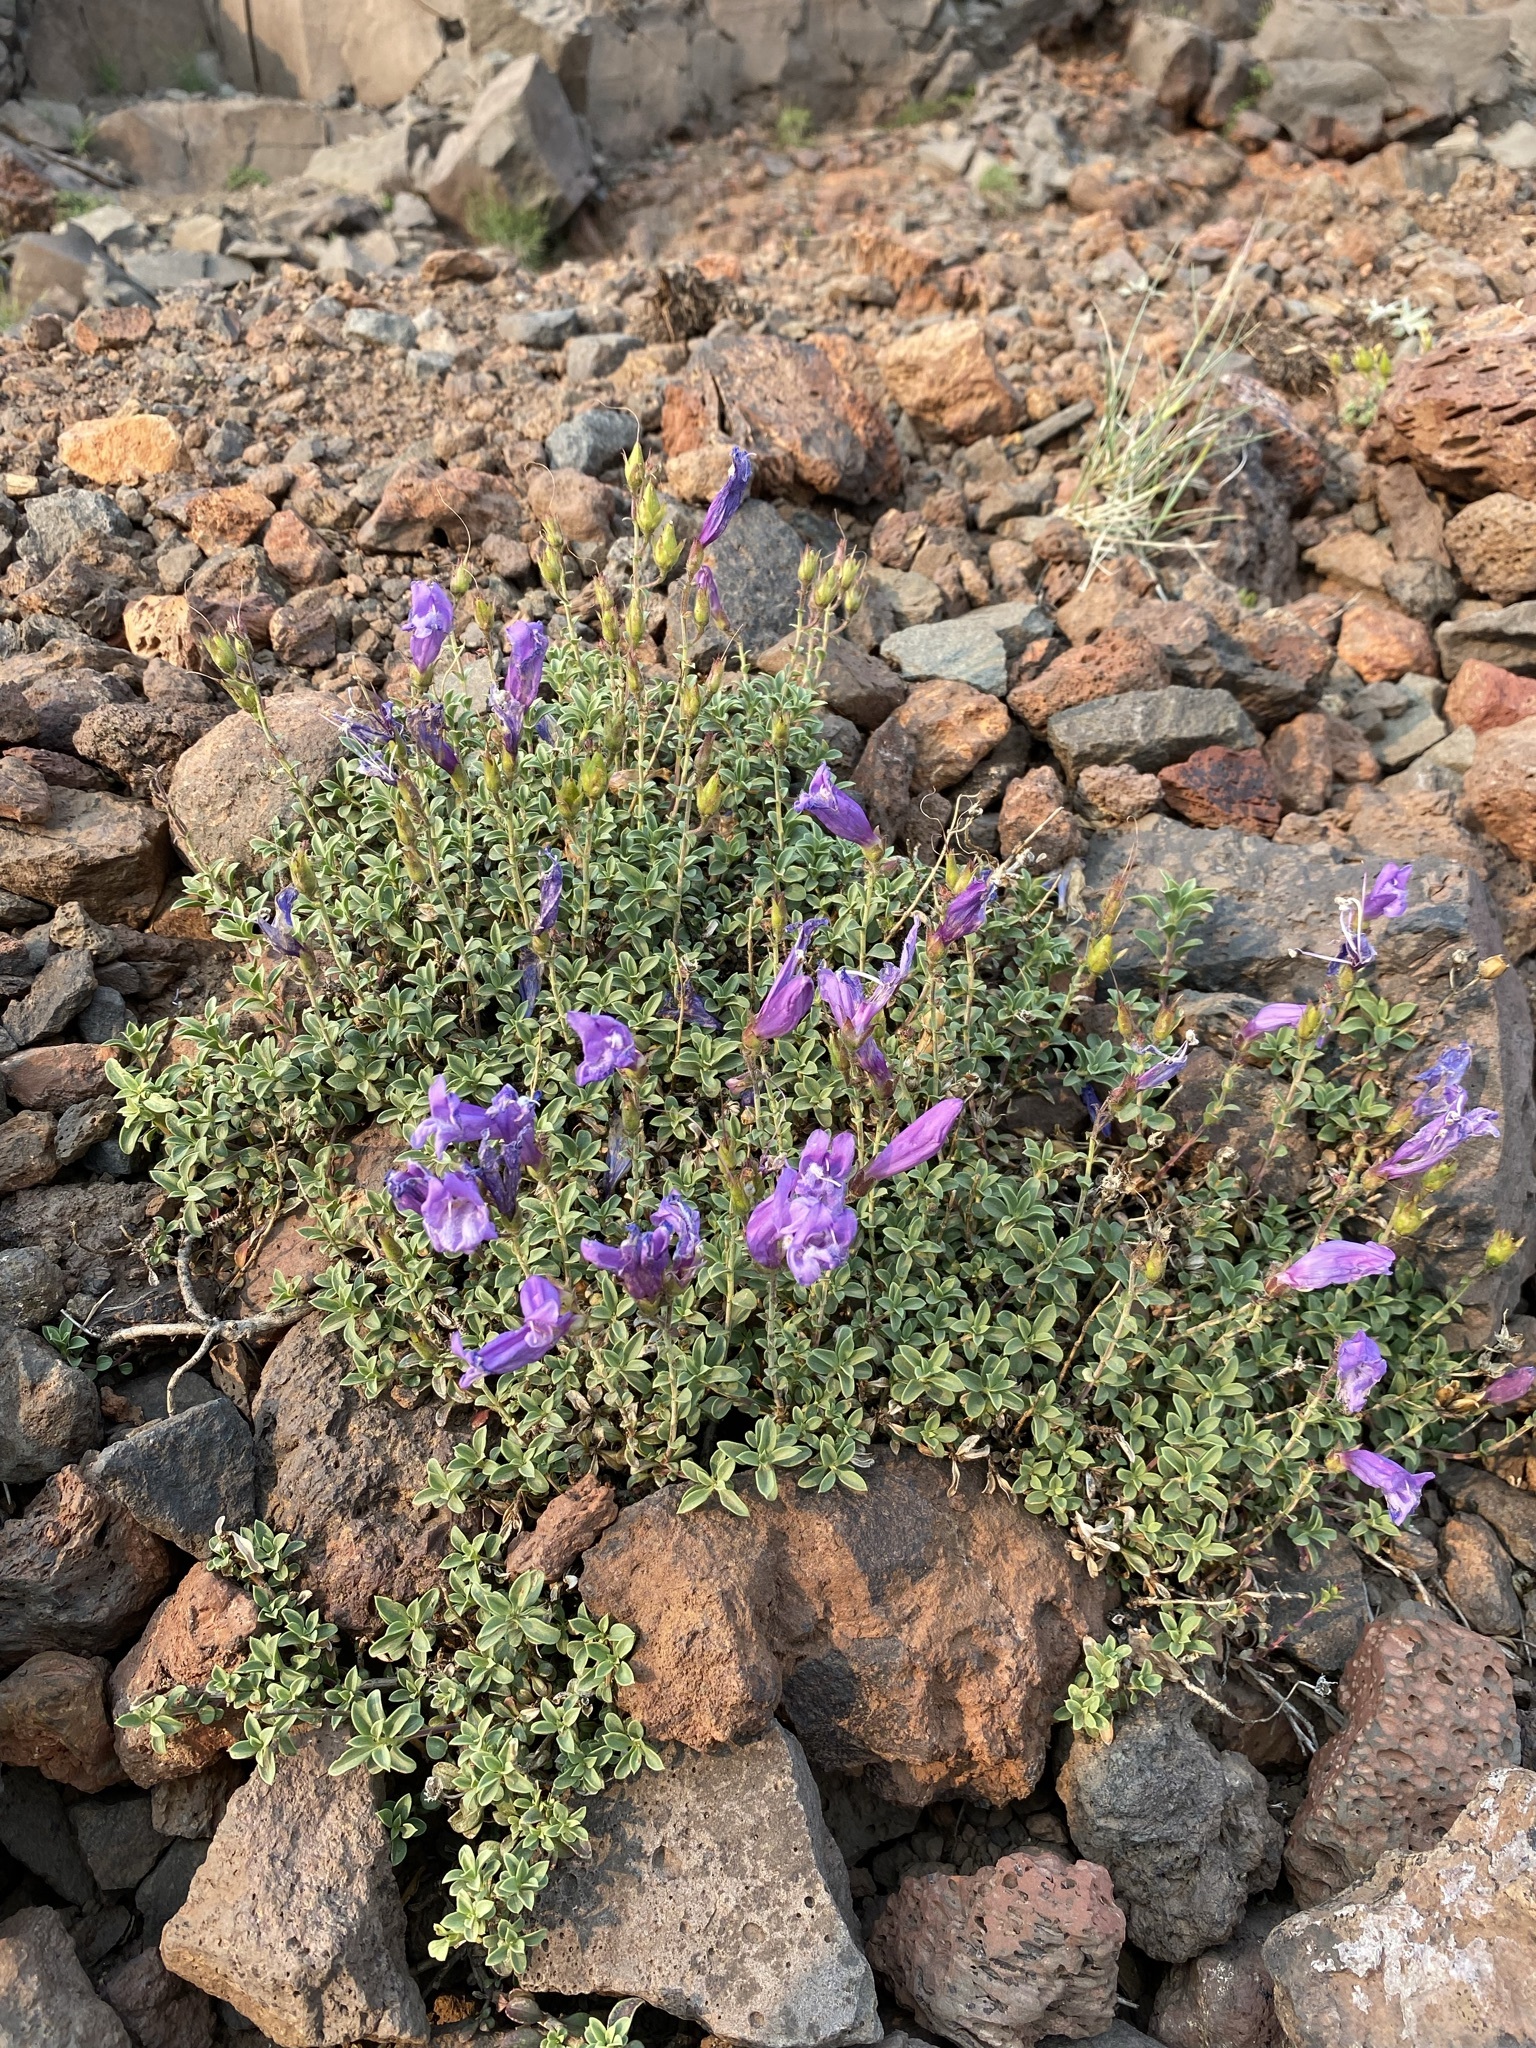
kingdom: Plantae
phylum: Tracheophyta
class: Magnoliopsida
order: Lamiales
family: Plantaginaceae
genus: Penstemon
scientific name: Penstemon davidsonii
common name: Davidson's penstemon
